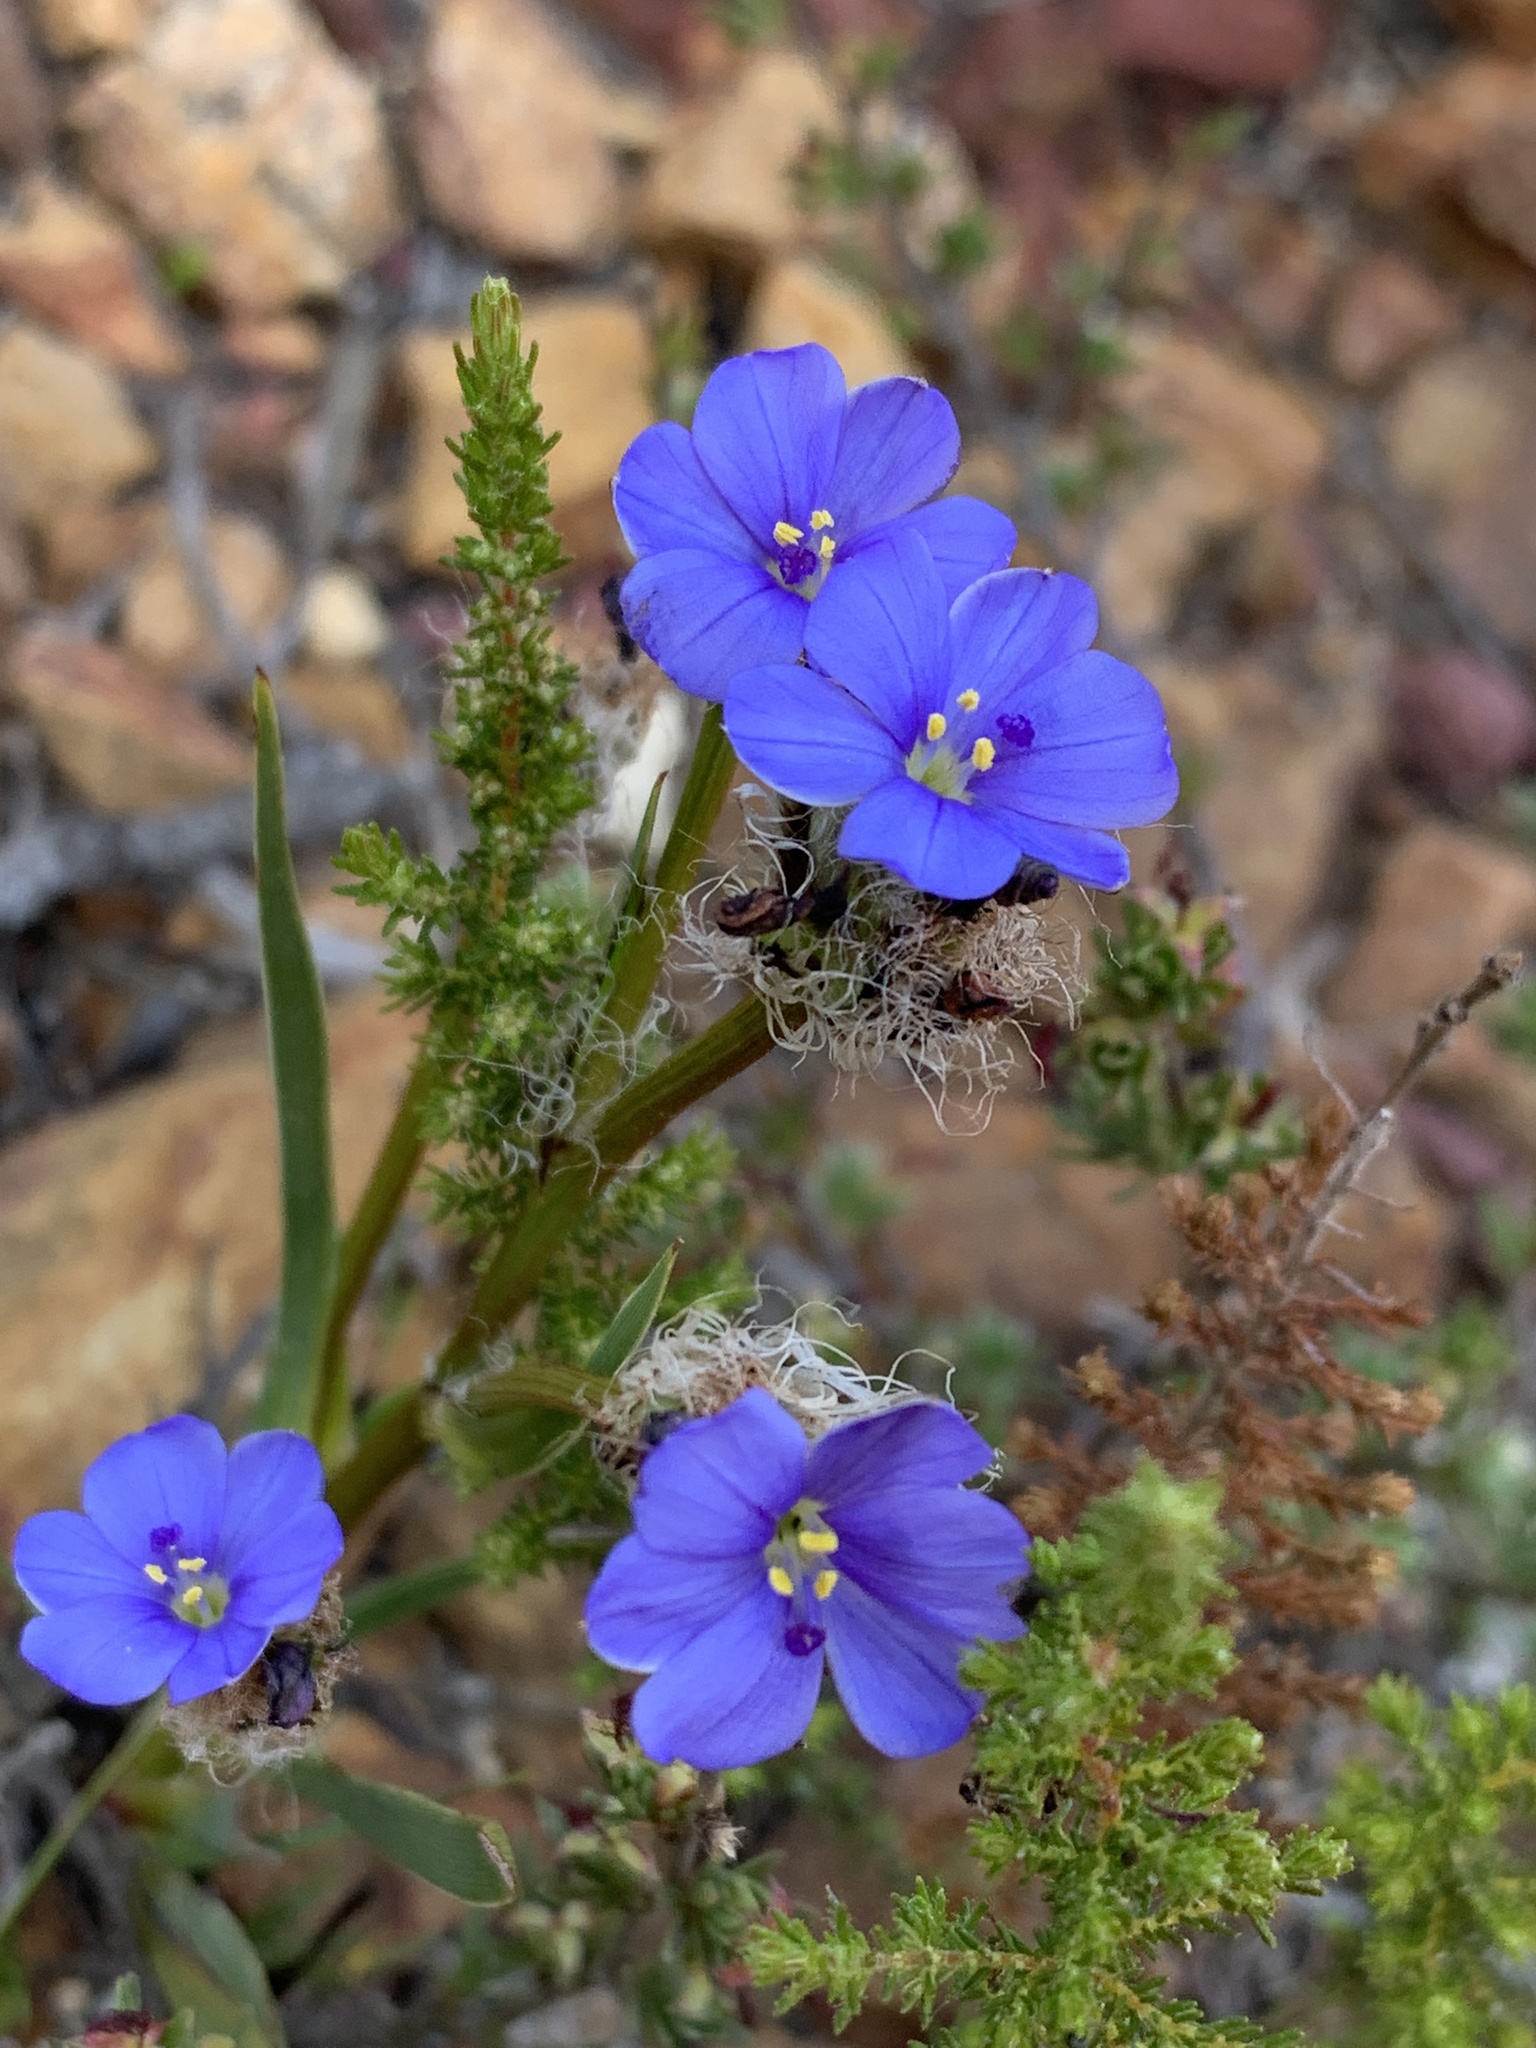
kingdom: Plantae
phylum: Tracheophyta
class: Liliopsida
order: Asparagales
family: Iridaceae
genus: Aristea
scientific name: Aristea africana
